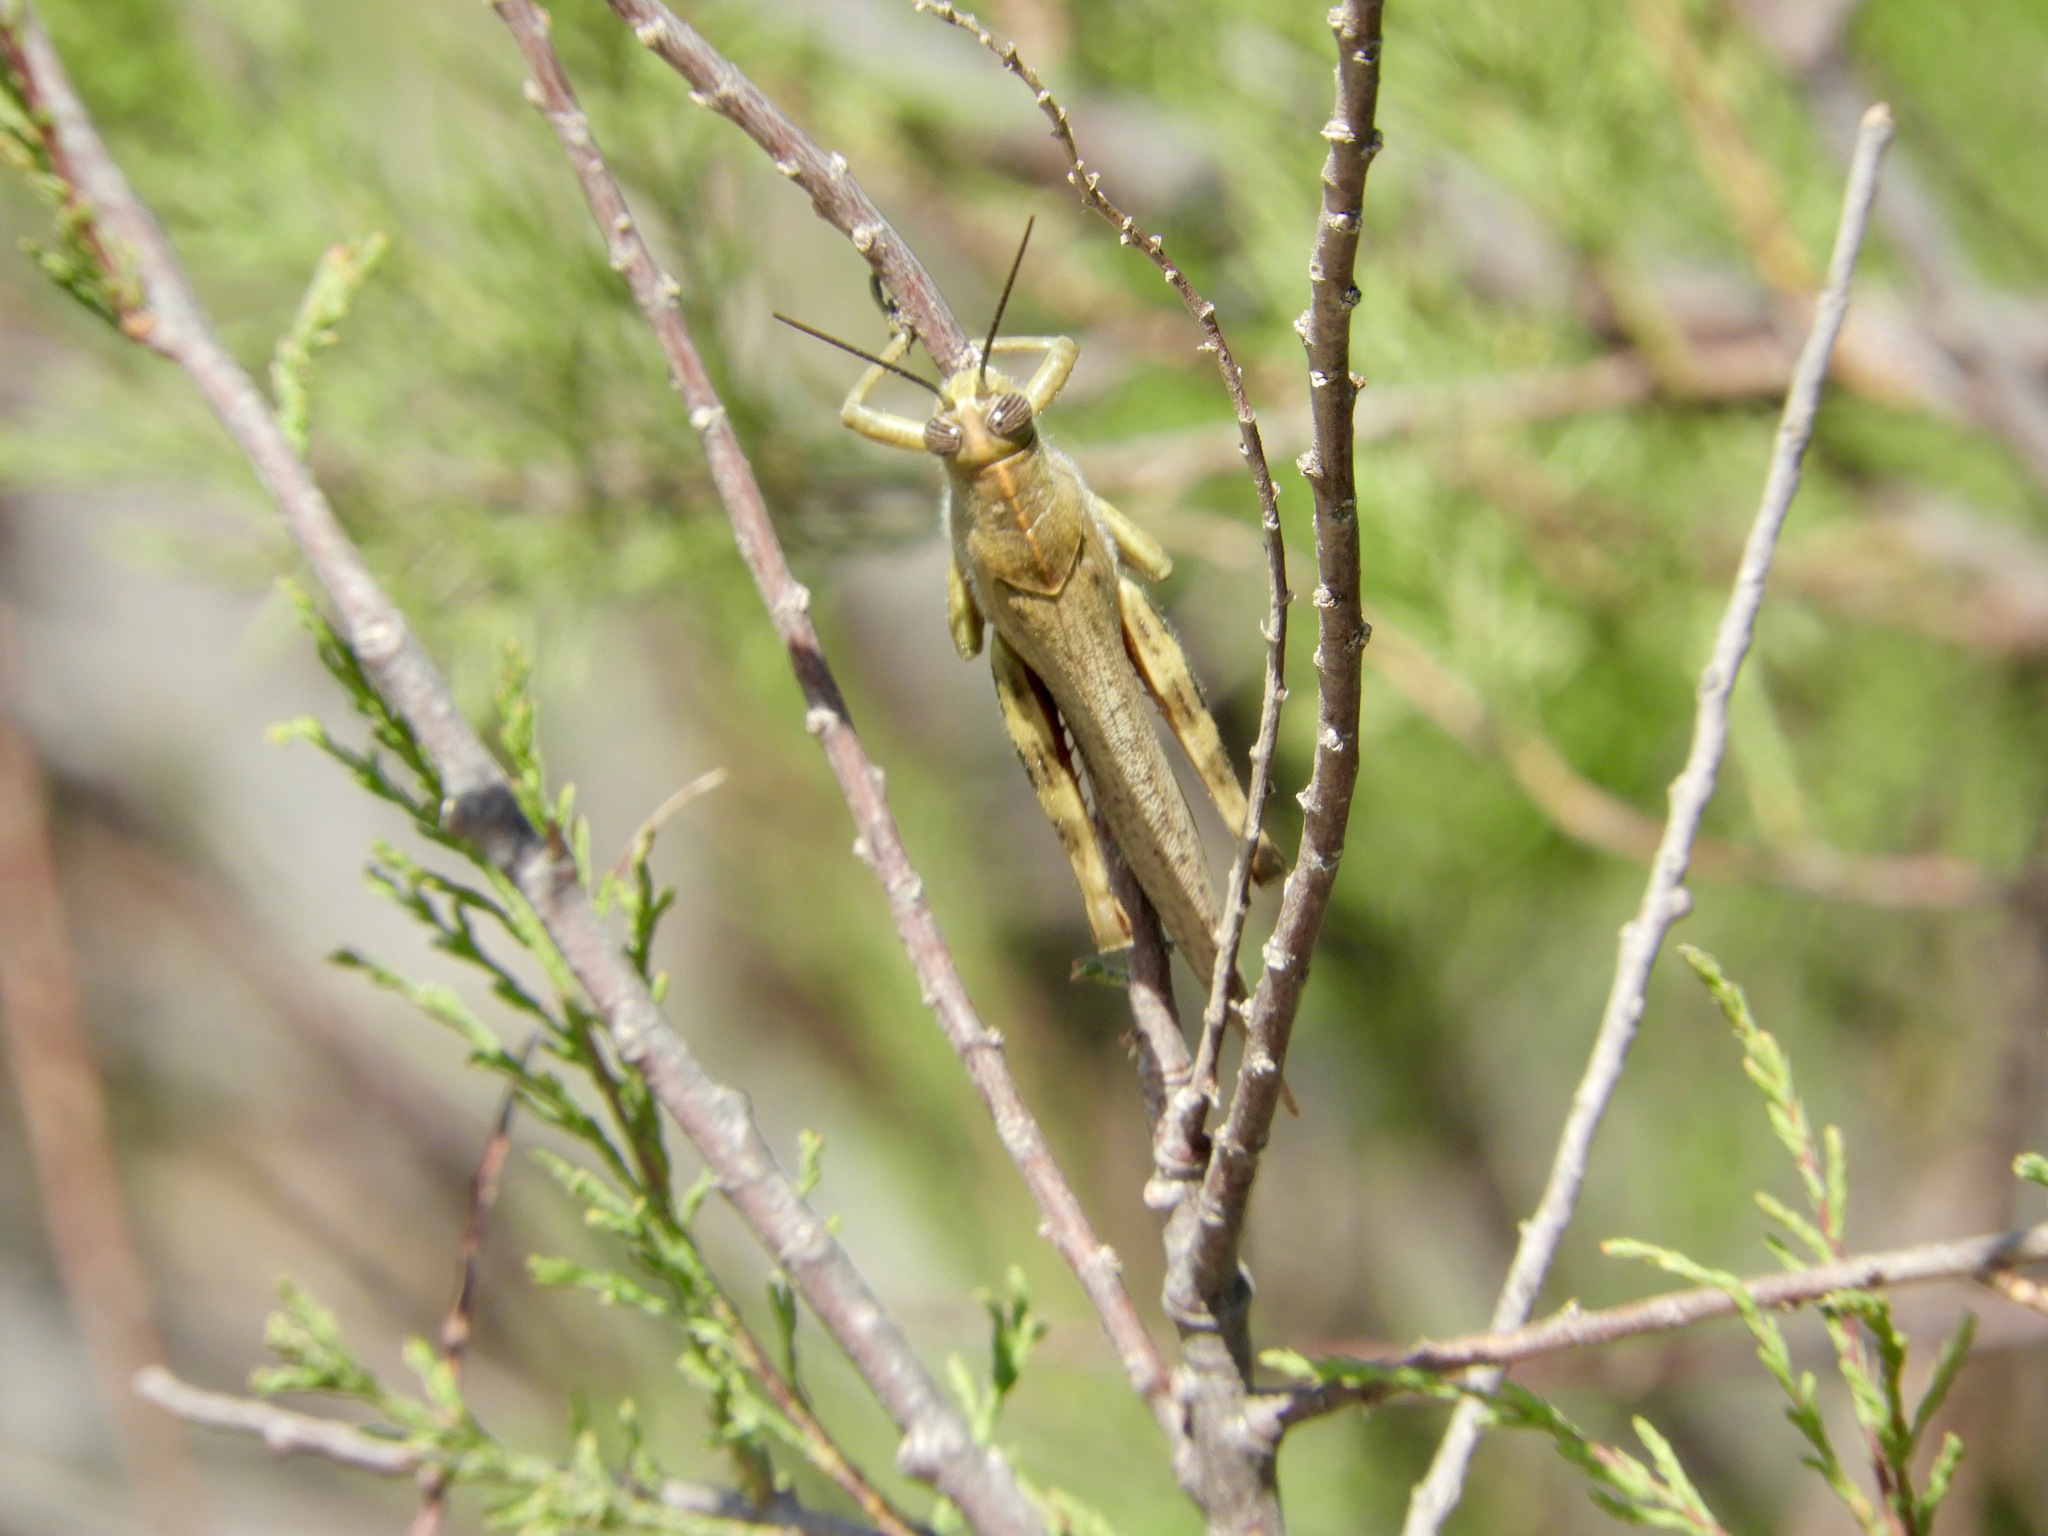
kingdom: Animalia
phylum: Arthropoda
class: Insecta
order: Orthoptera
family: Acrididae
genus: Anacridium
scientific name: Anacridium aegyptium
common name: Egyptian grasshopper
